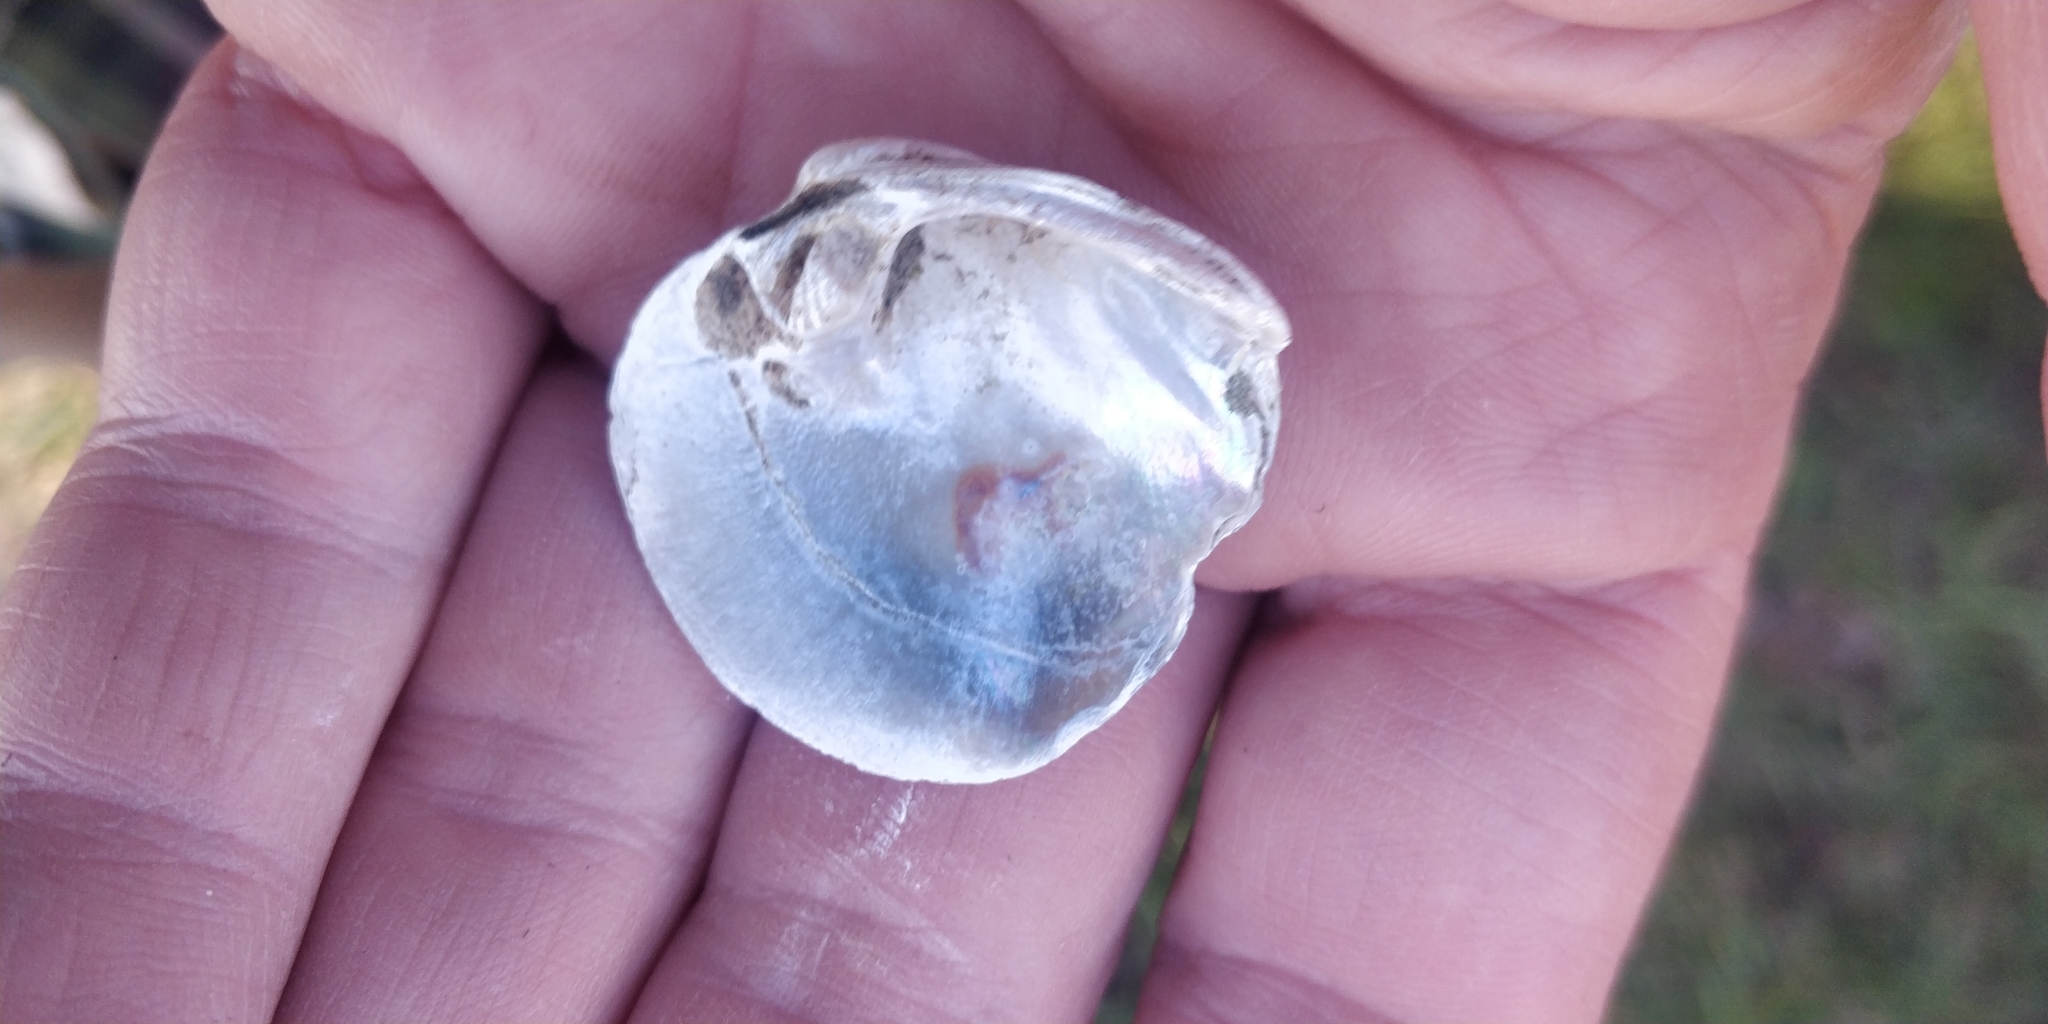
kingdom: Animalia
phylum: Mollusca
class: Bivalvia
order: Unionida
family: Unionidae
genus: Obliquaria
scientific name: Obliquaria reflexa
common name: Threehorn wartyback
